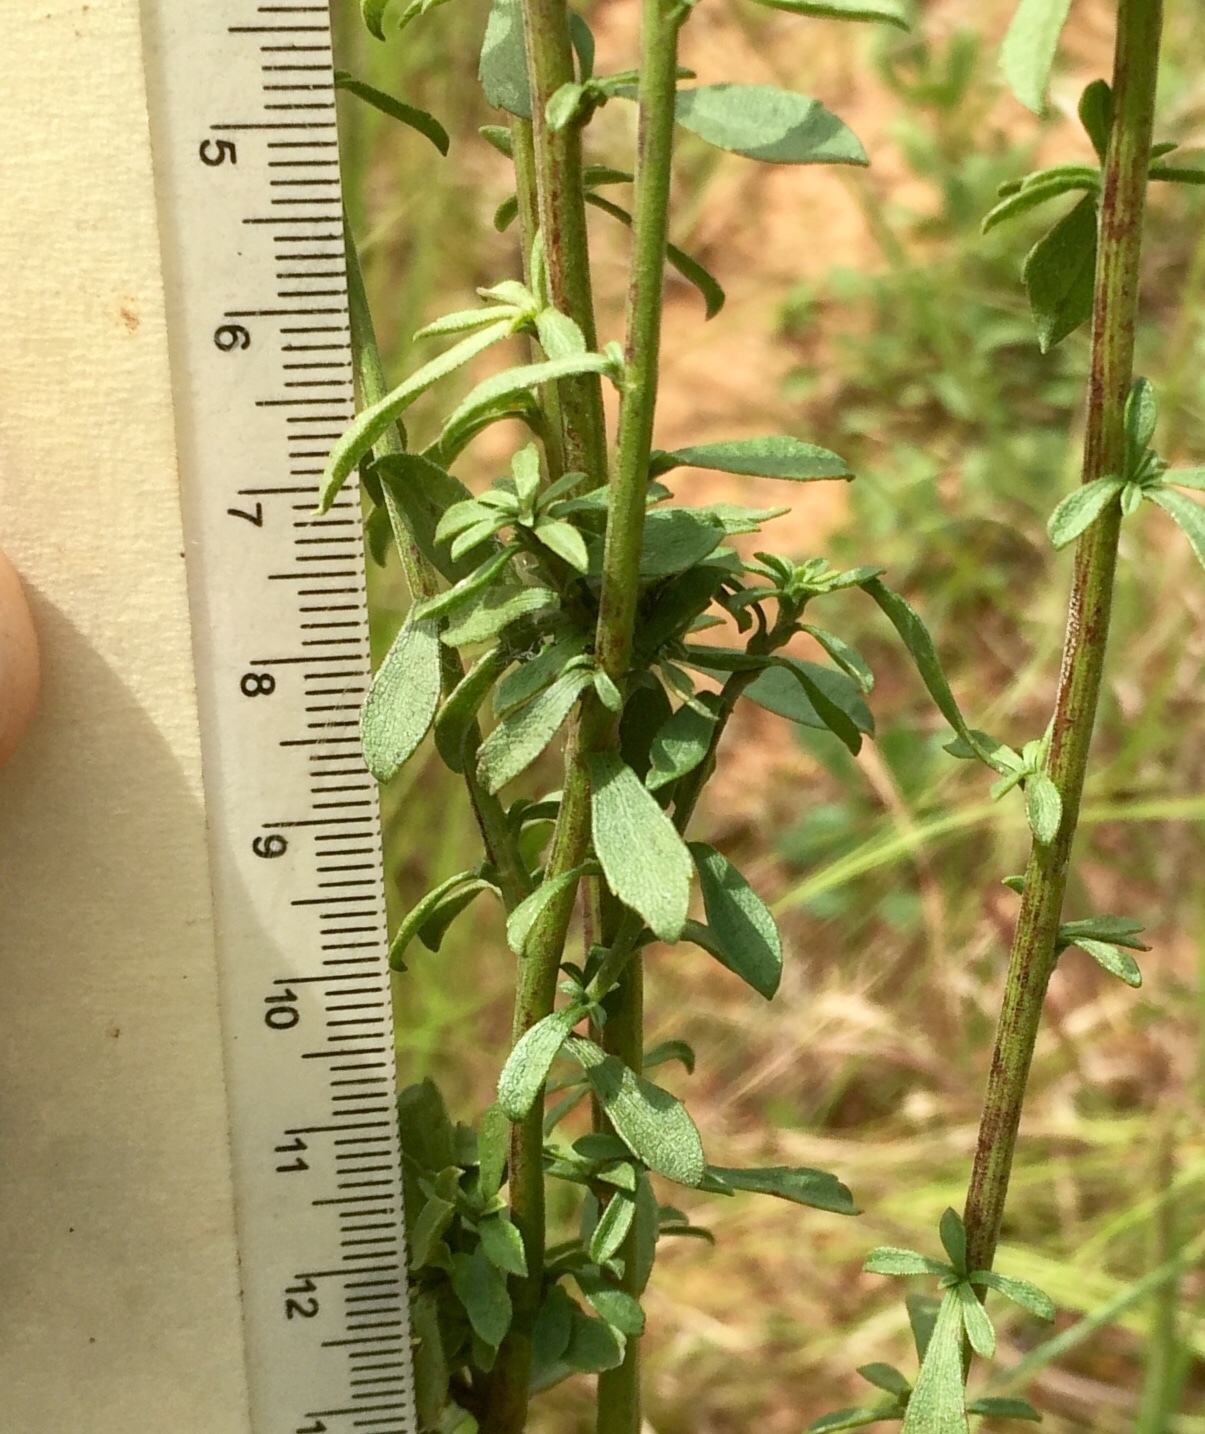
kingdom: Plantae
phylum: Tracheophyta
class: Magnoliopsida
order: Asterales
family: Asteraceae
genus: Solidago
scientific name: Solidago nemoralis
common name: Grey goldenrod
